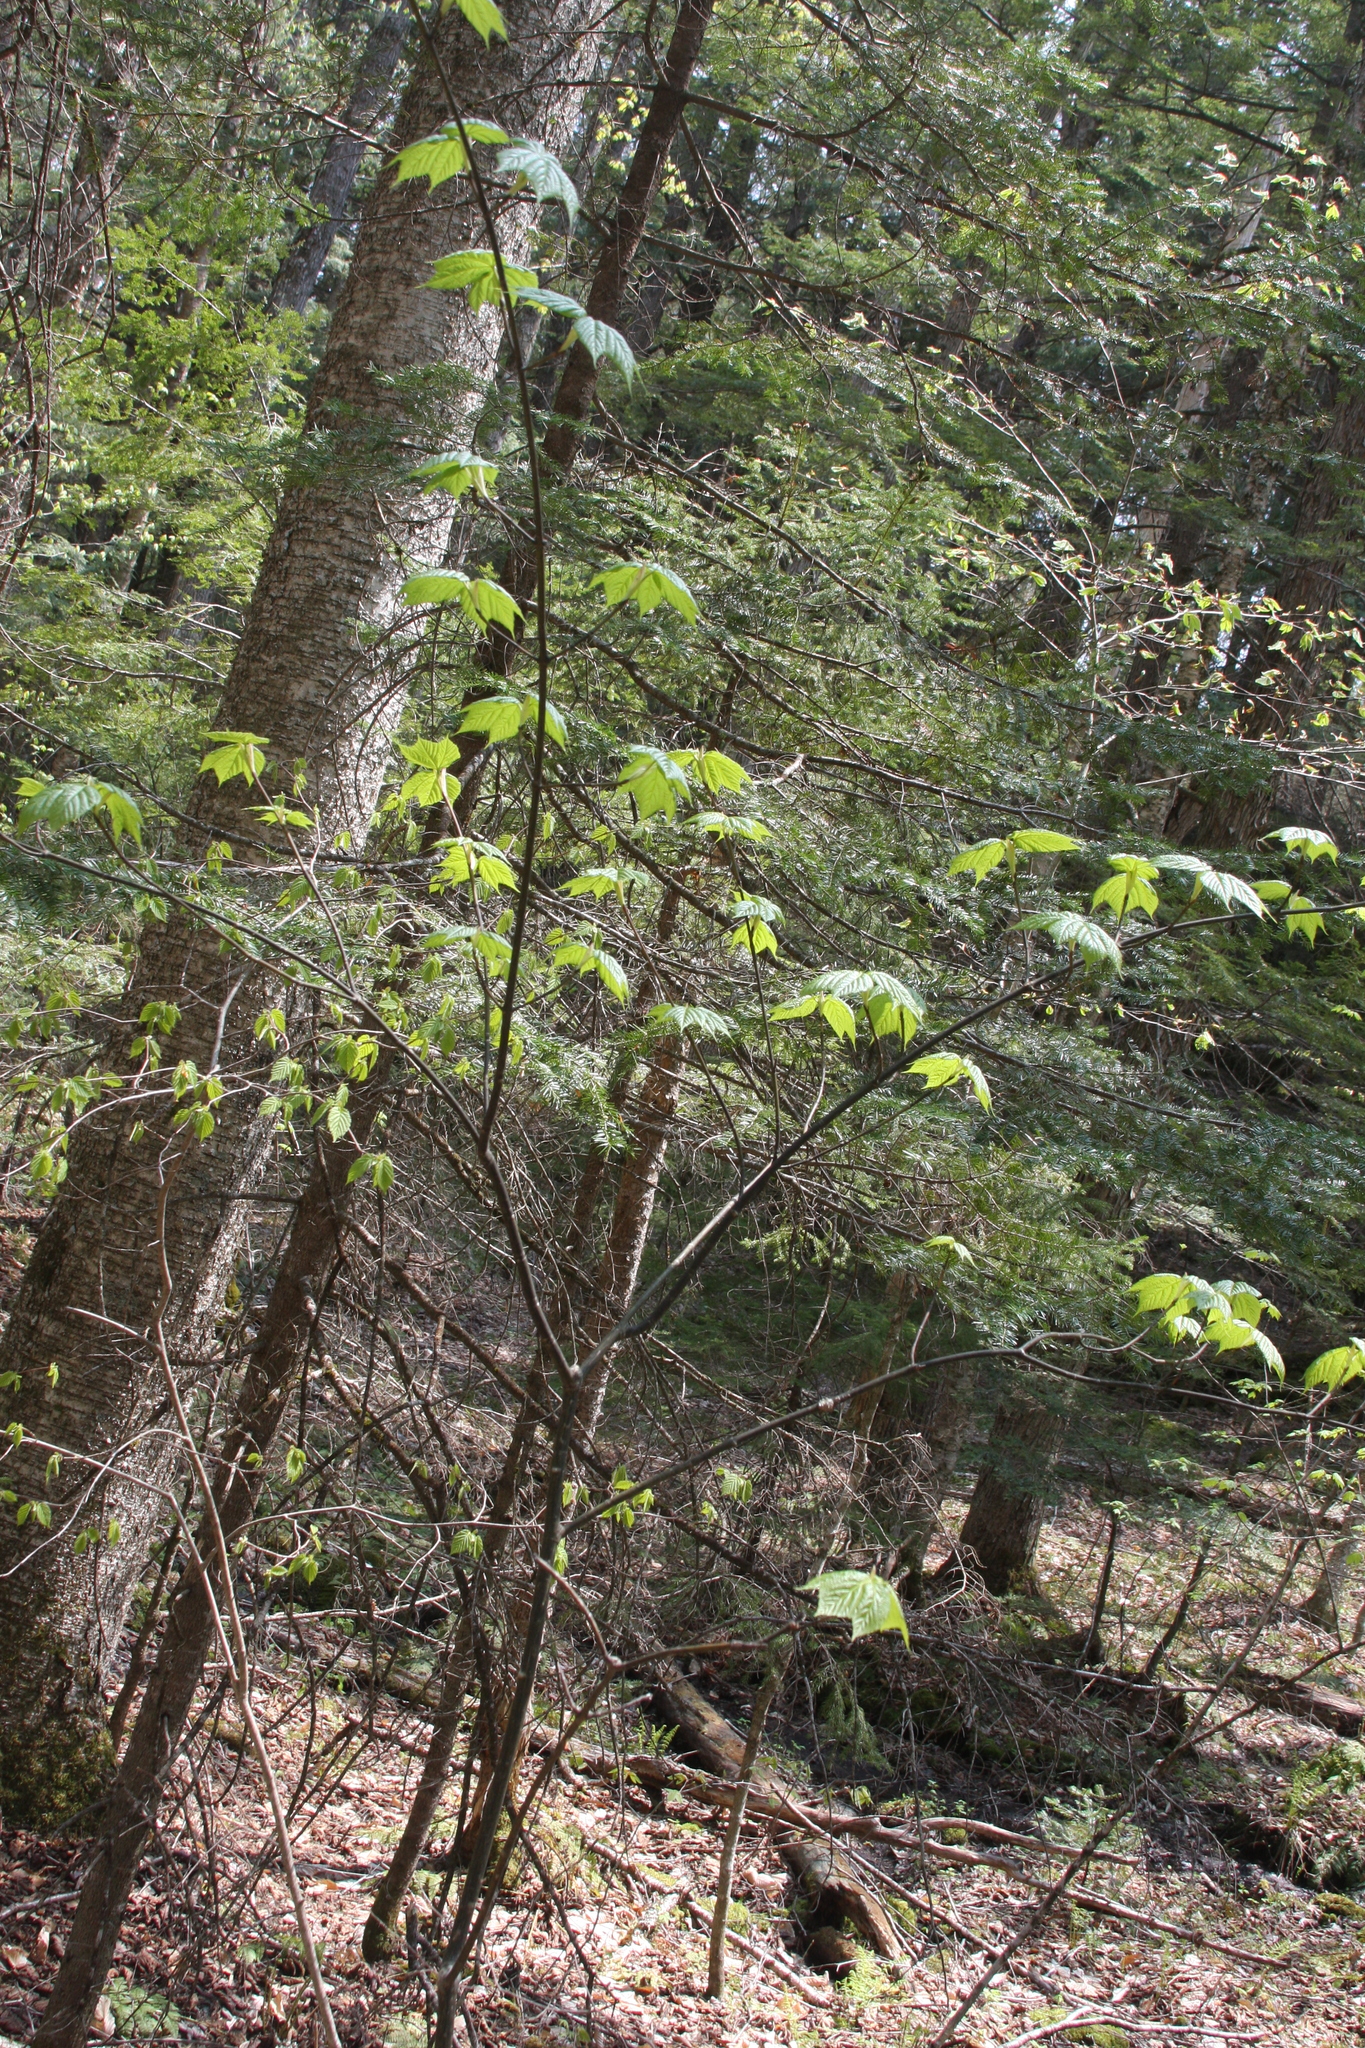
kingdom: Plantae
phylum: Tracheophyta
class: Magnoliopsida
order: Sapindales
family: Sapindaceae
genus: Acer
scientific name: Acer pensylvanicum
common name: Moosewood
